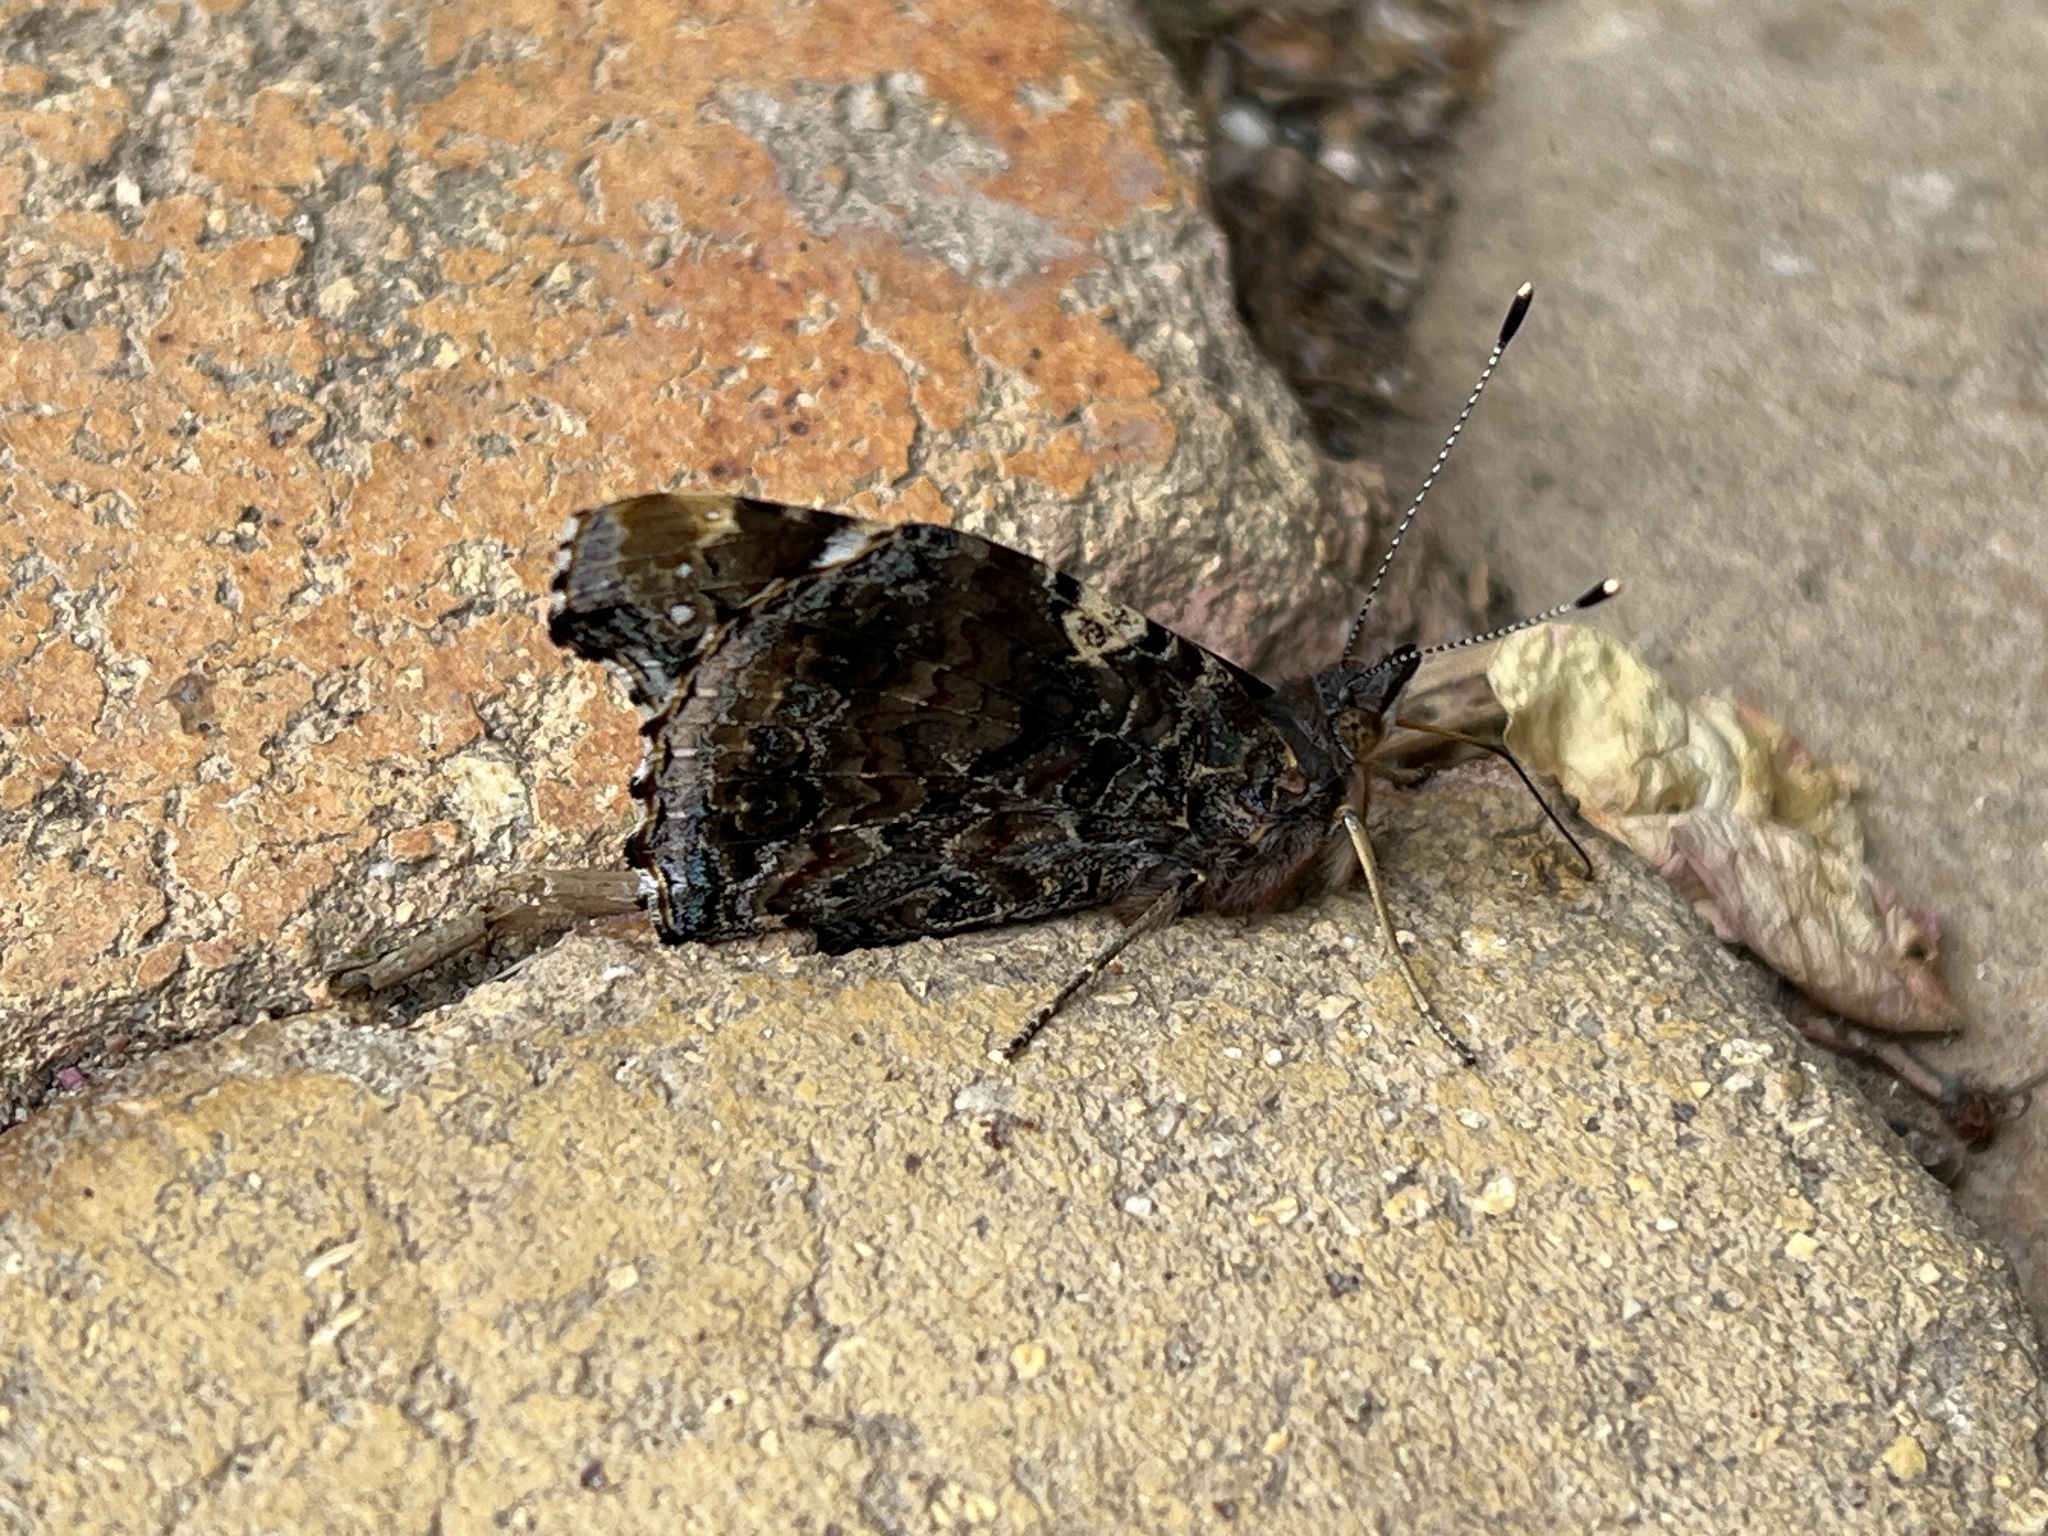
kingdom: Animalia
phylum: Arthropoda
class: Insecta
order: Lepidoptera
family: Nymphalidae
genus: Vanessa
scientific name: Vanessa atalanta
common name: Red admiral
